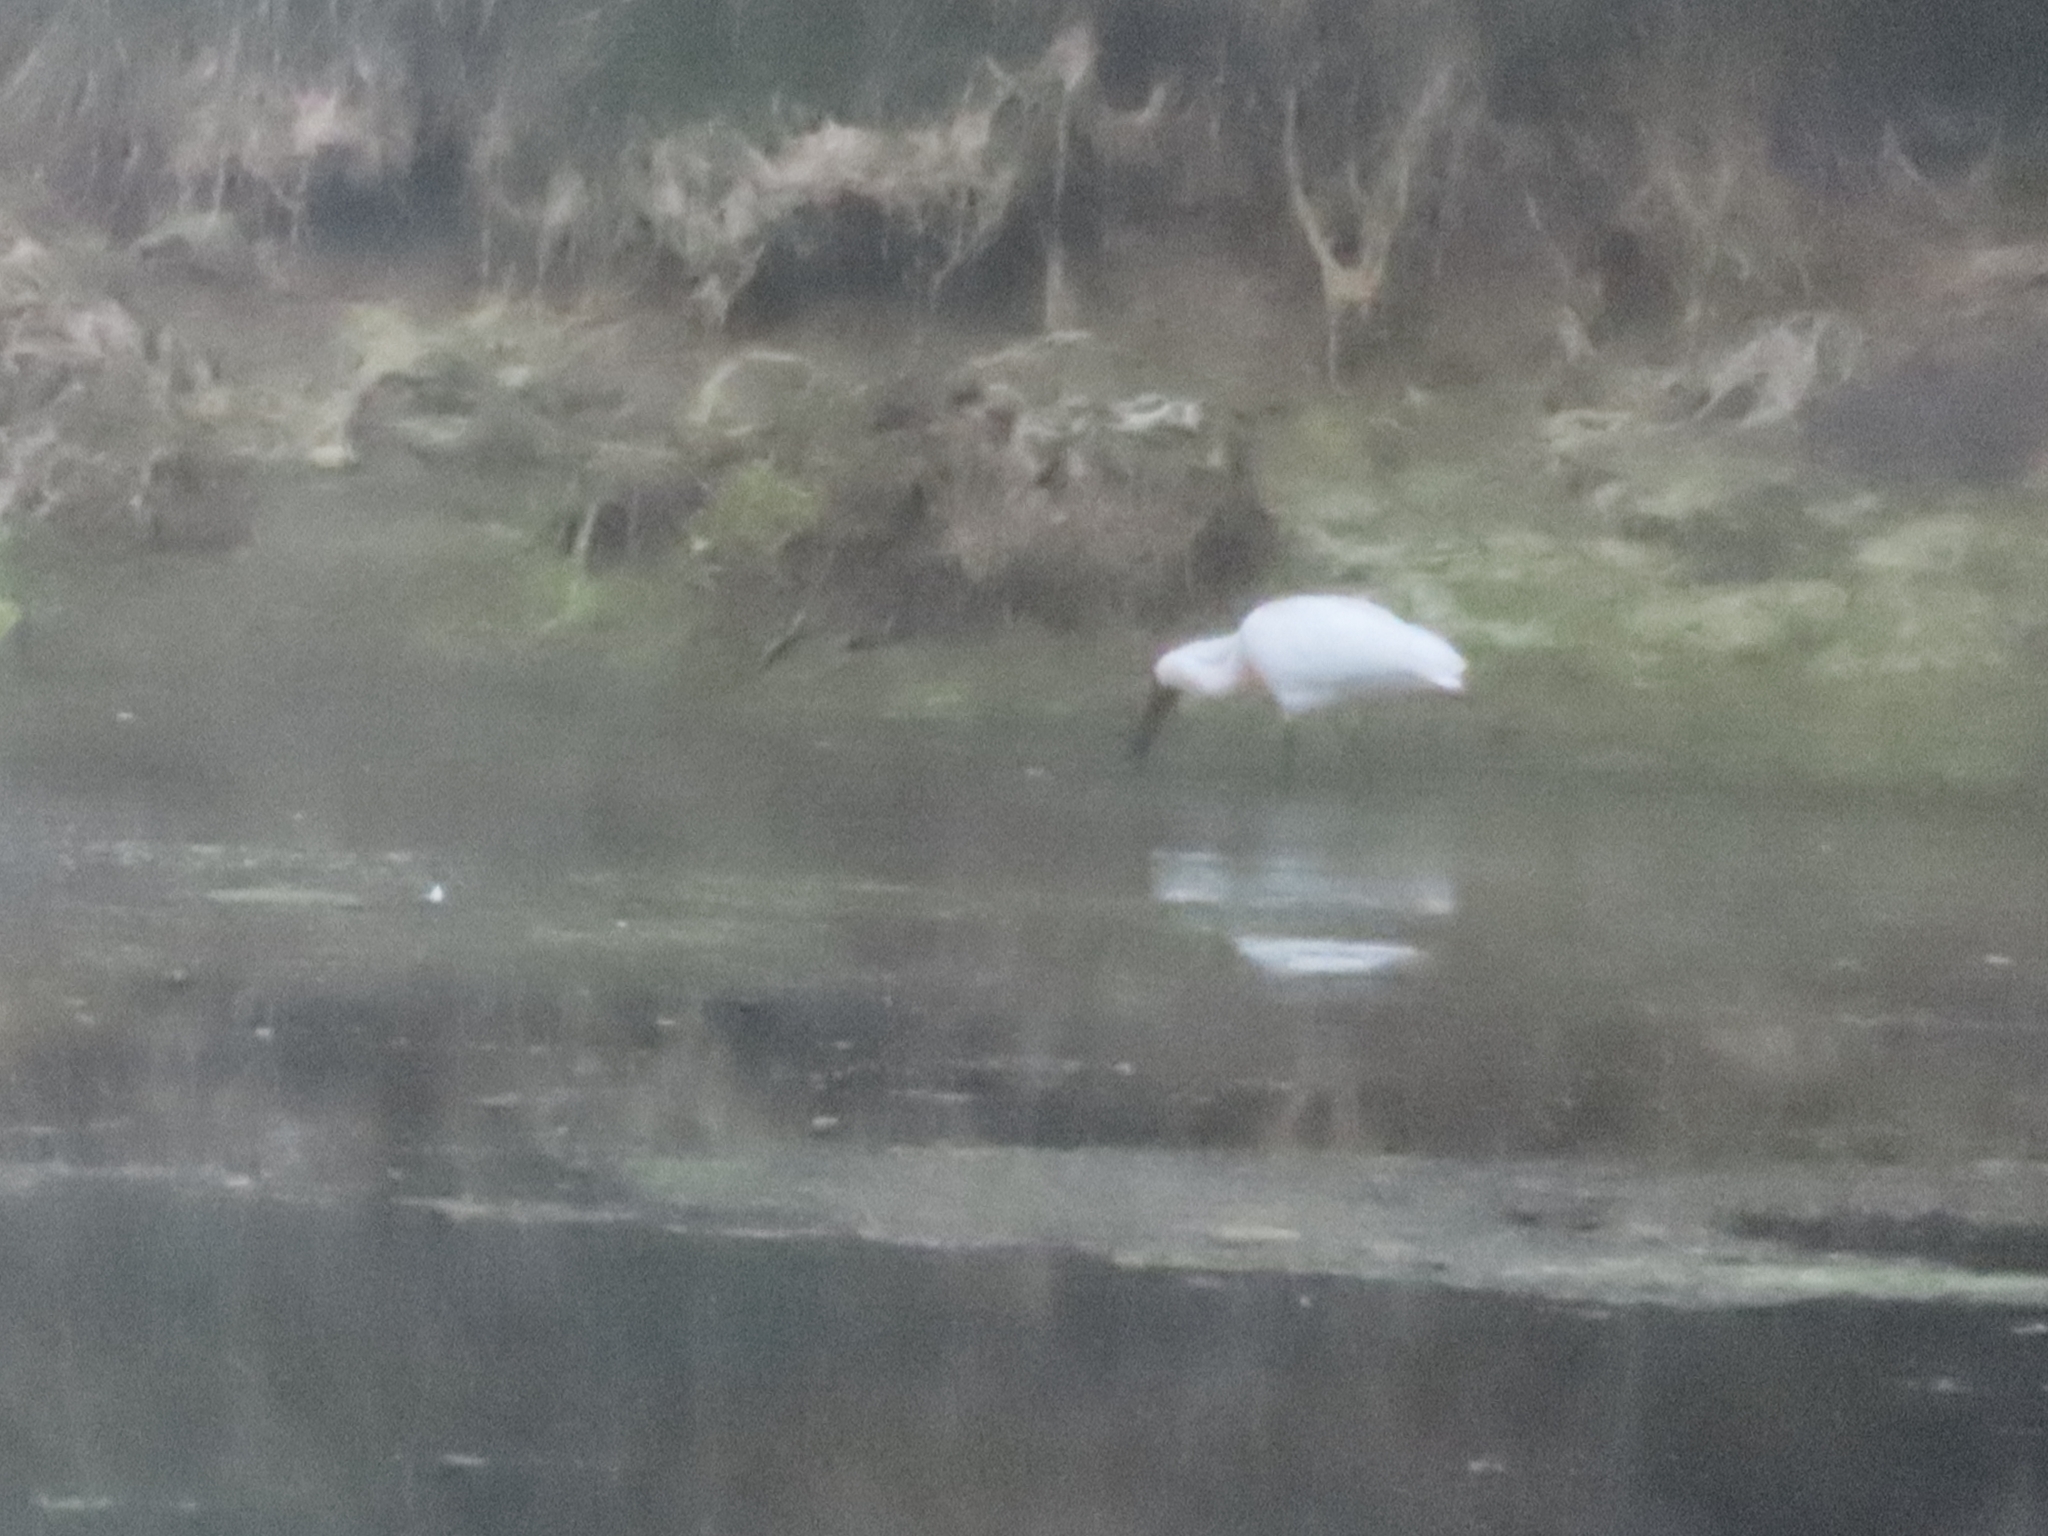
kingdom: Animalia
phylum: Chordata
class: Aves
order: Pelecaniformes
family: Threskiornithidae
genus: Platalea
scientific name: Platalea regia
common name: Royal spoonbill
